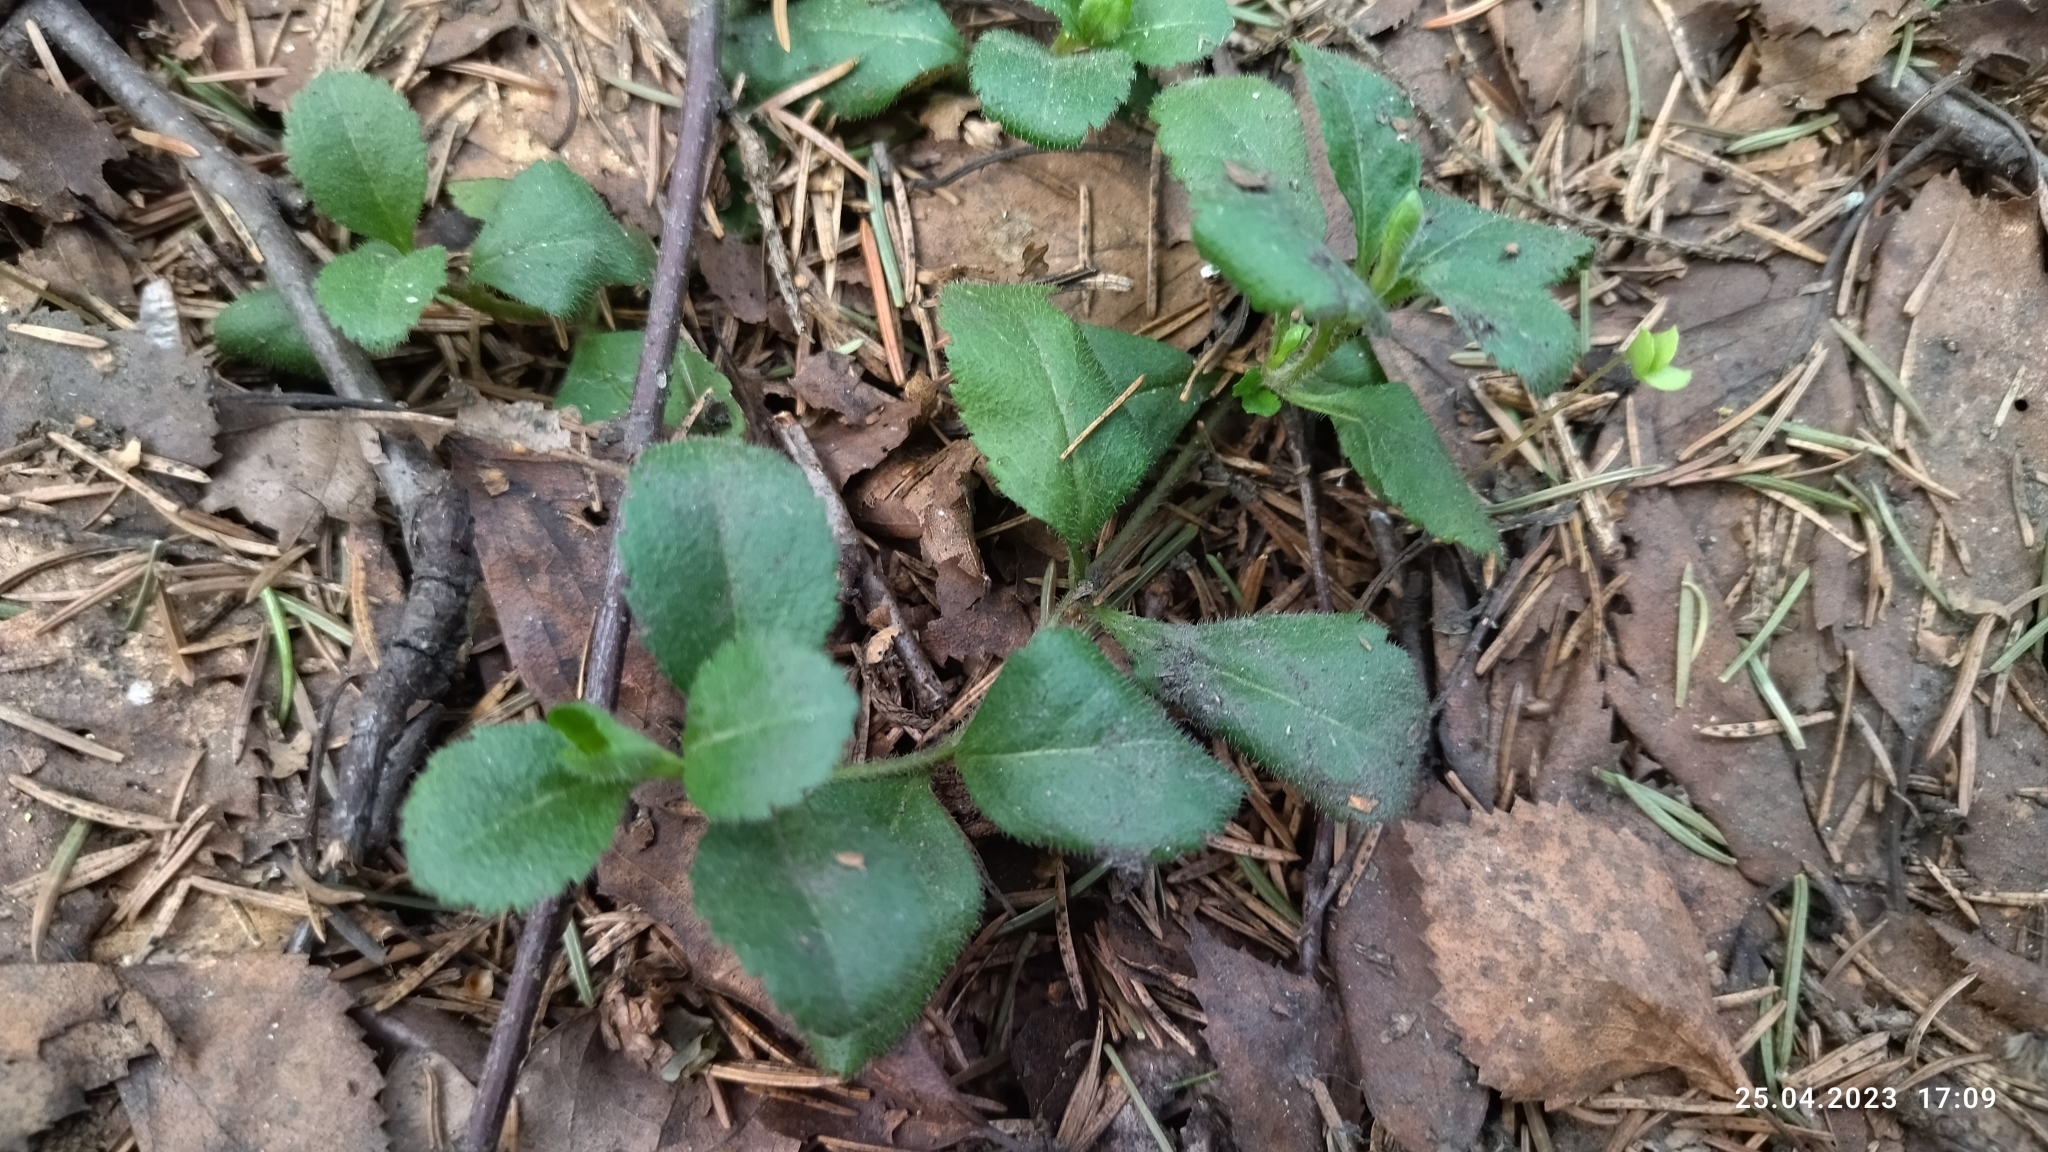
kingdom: Plantae
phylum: Tracheophyta
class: Magnoliopsida
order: Lamiales
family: Plantaginaceae
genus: Veronica
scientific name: Veronica officinalis
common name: Common speedwell
